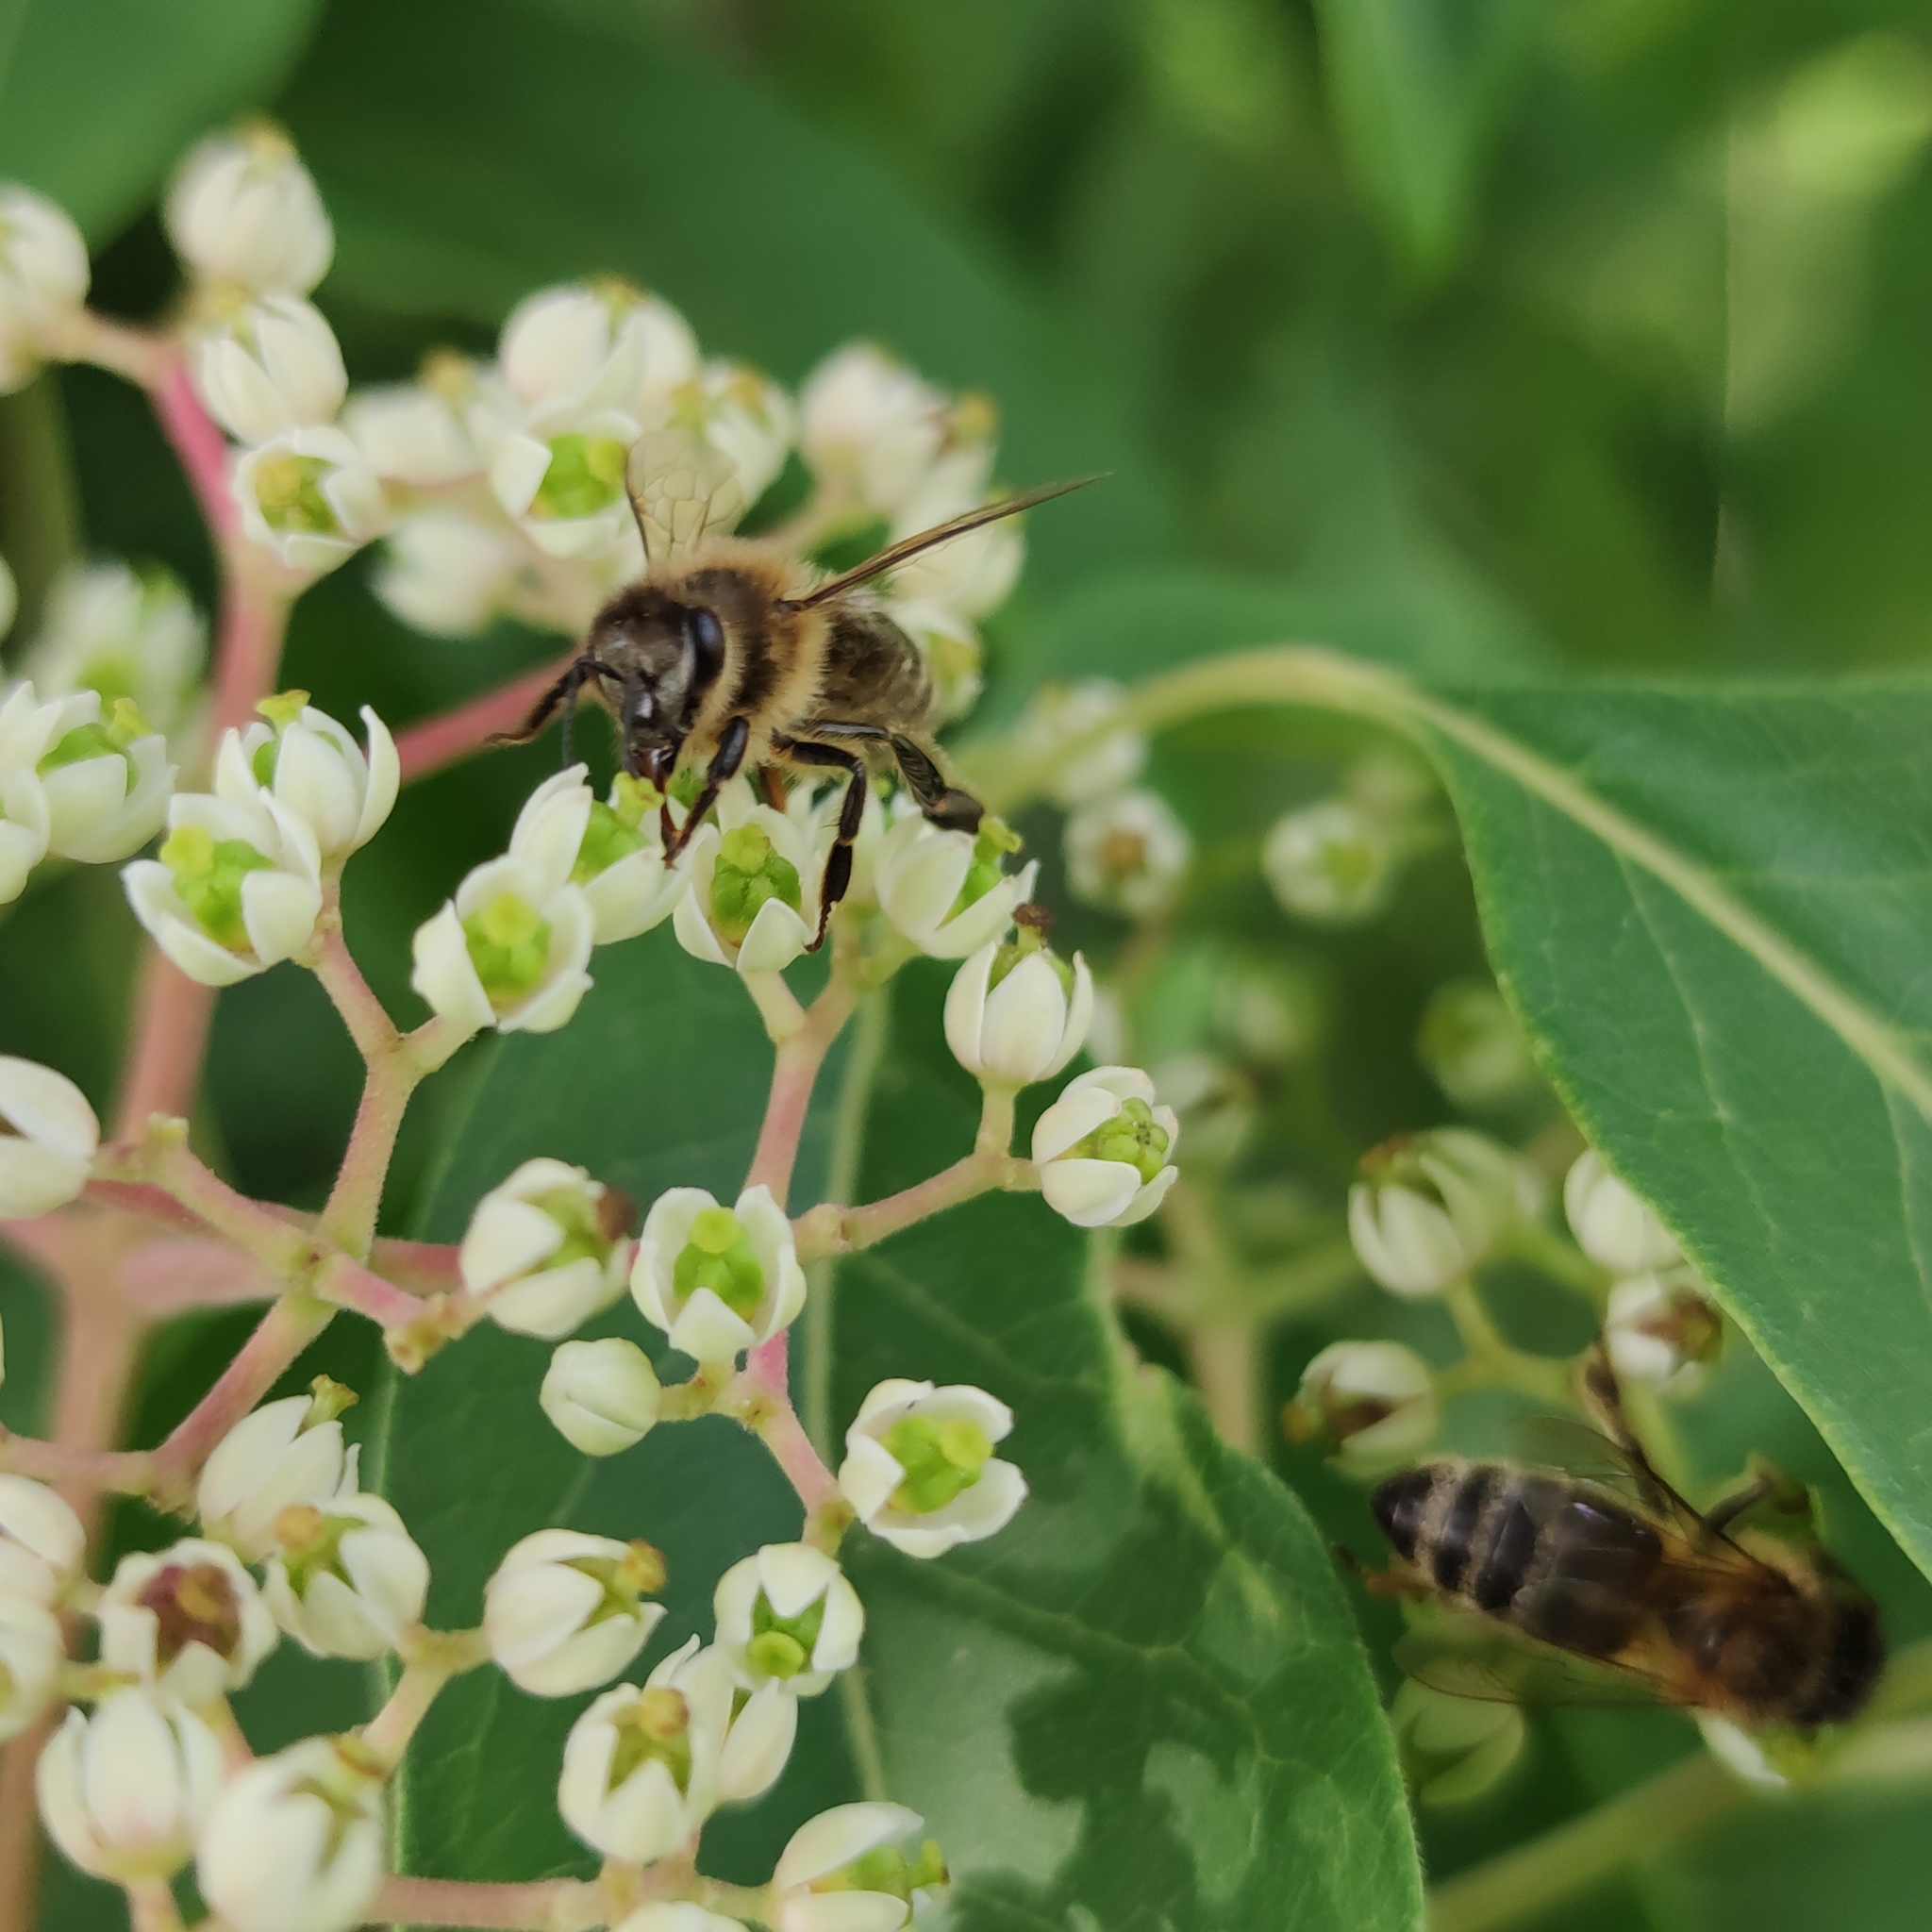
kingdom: Animalia
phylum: Arthropoda
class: Insecta
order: Hymenoptera
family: Apidae
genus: Apis
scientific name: Apis mellifera
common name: Honey bee
